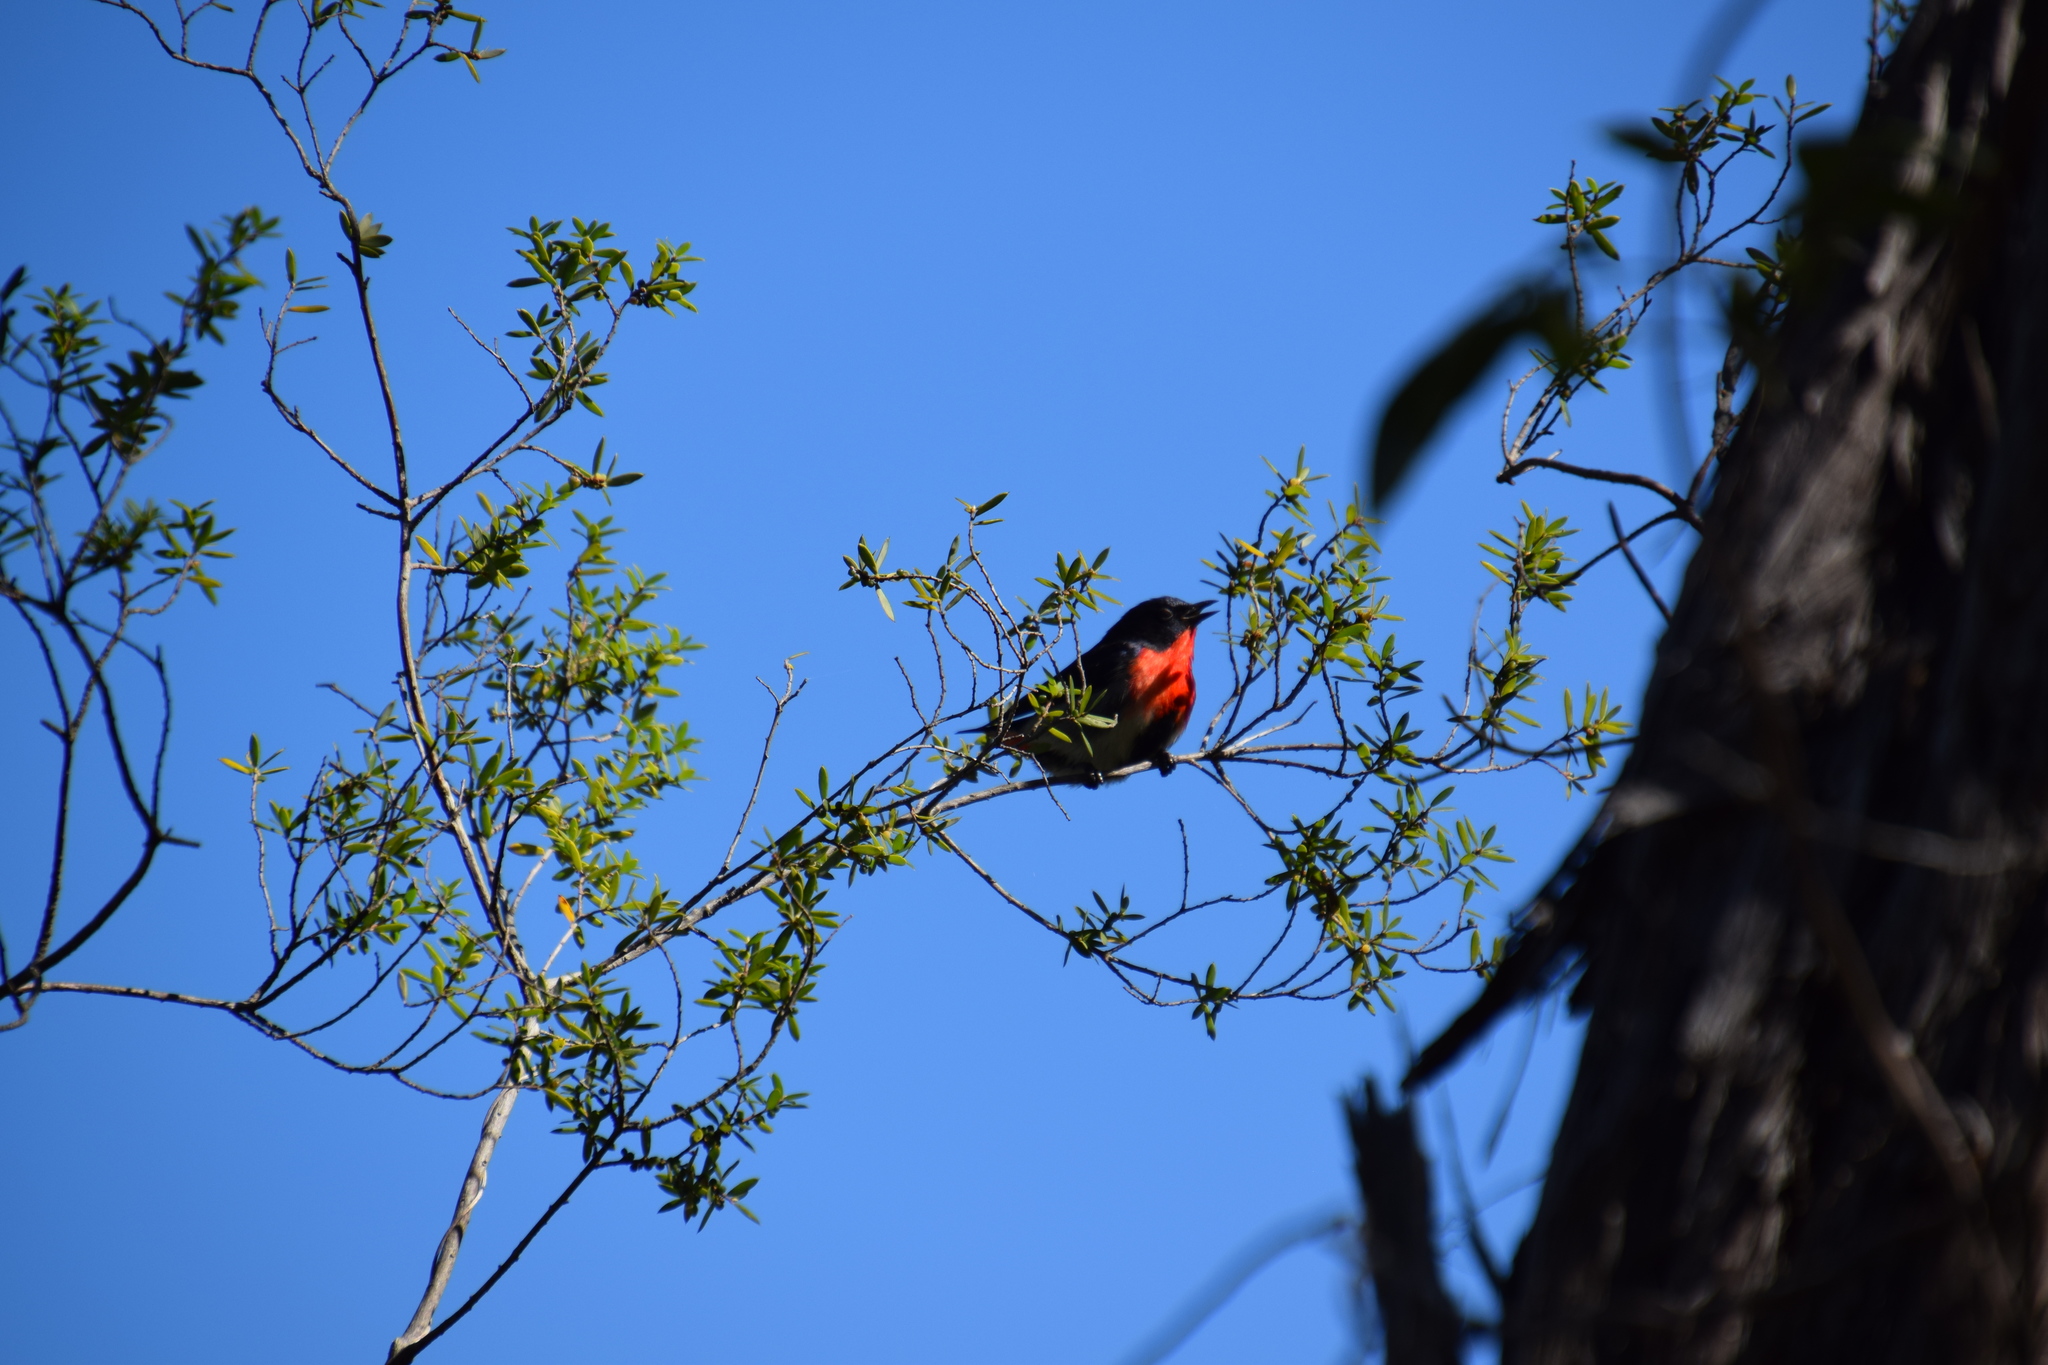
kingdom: Animalia
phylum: Chordata
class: Aves
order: Passeriformes
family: Dicaeidae
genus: Dicaeum
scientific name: Dicaeum hirundinaceum
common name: Mistletoebird
